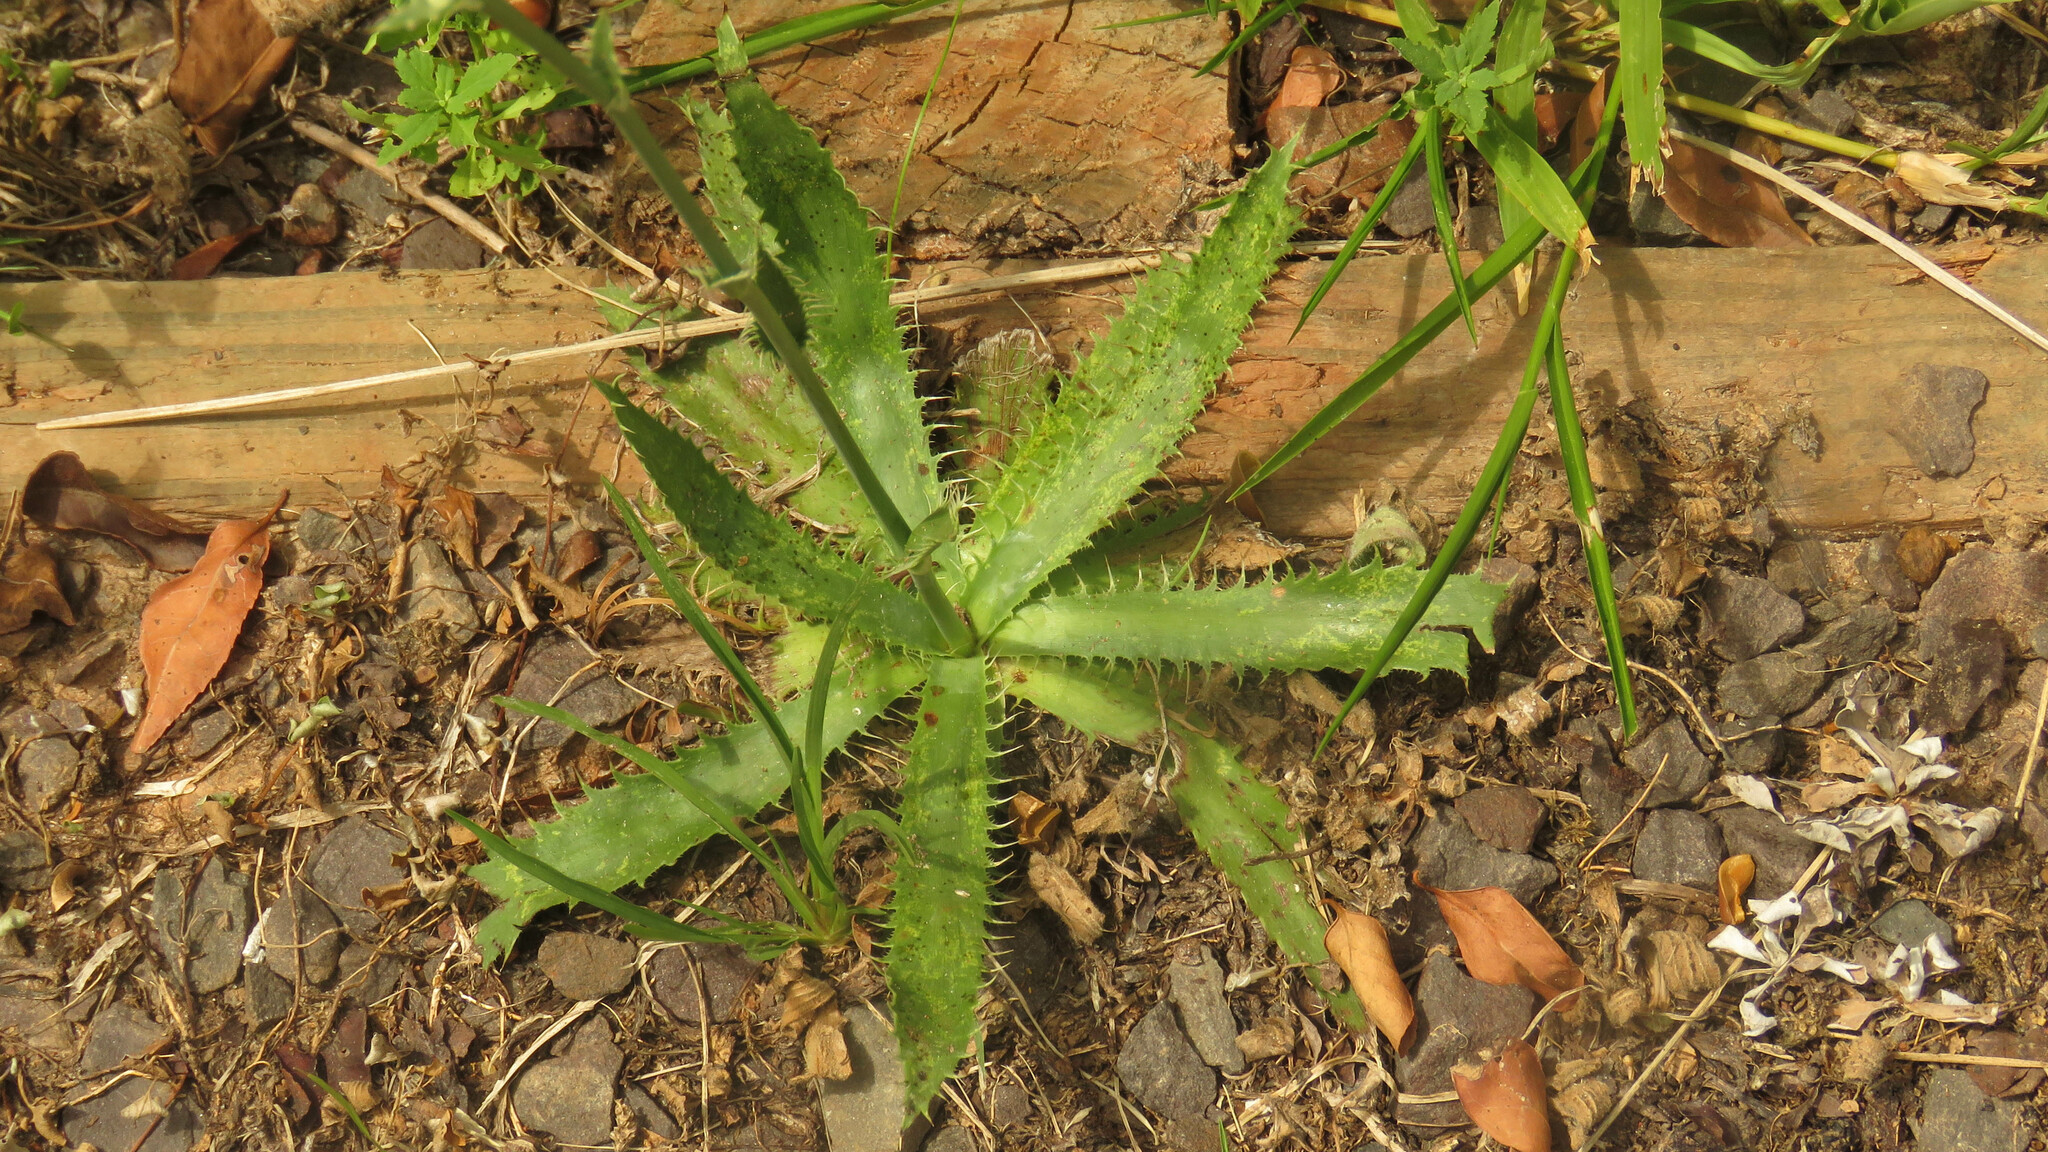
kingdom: Plantae
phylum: Tracheophyta
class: Magnoliopsida
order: Apiales
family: Apiaceae
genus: Eryngium
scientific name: Eryngium elegans
